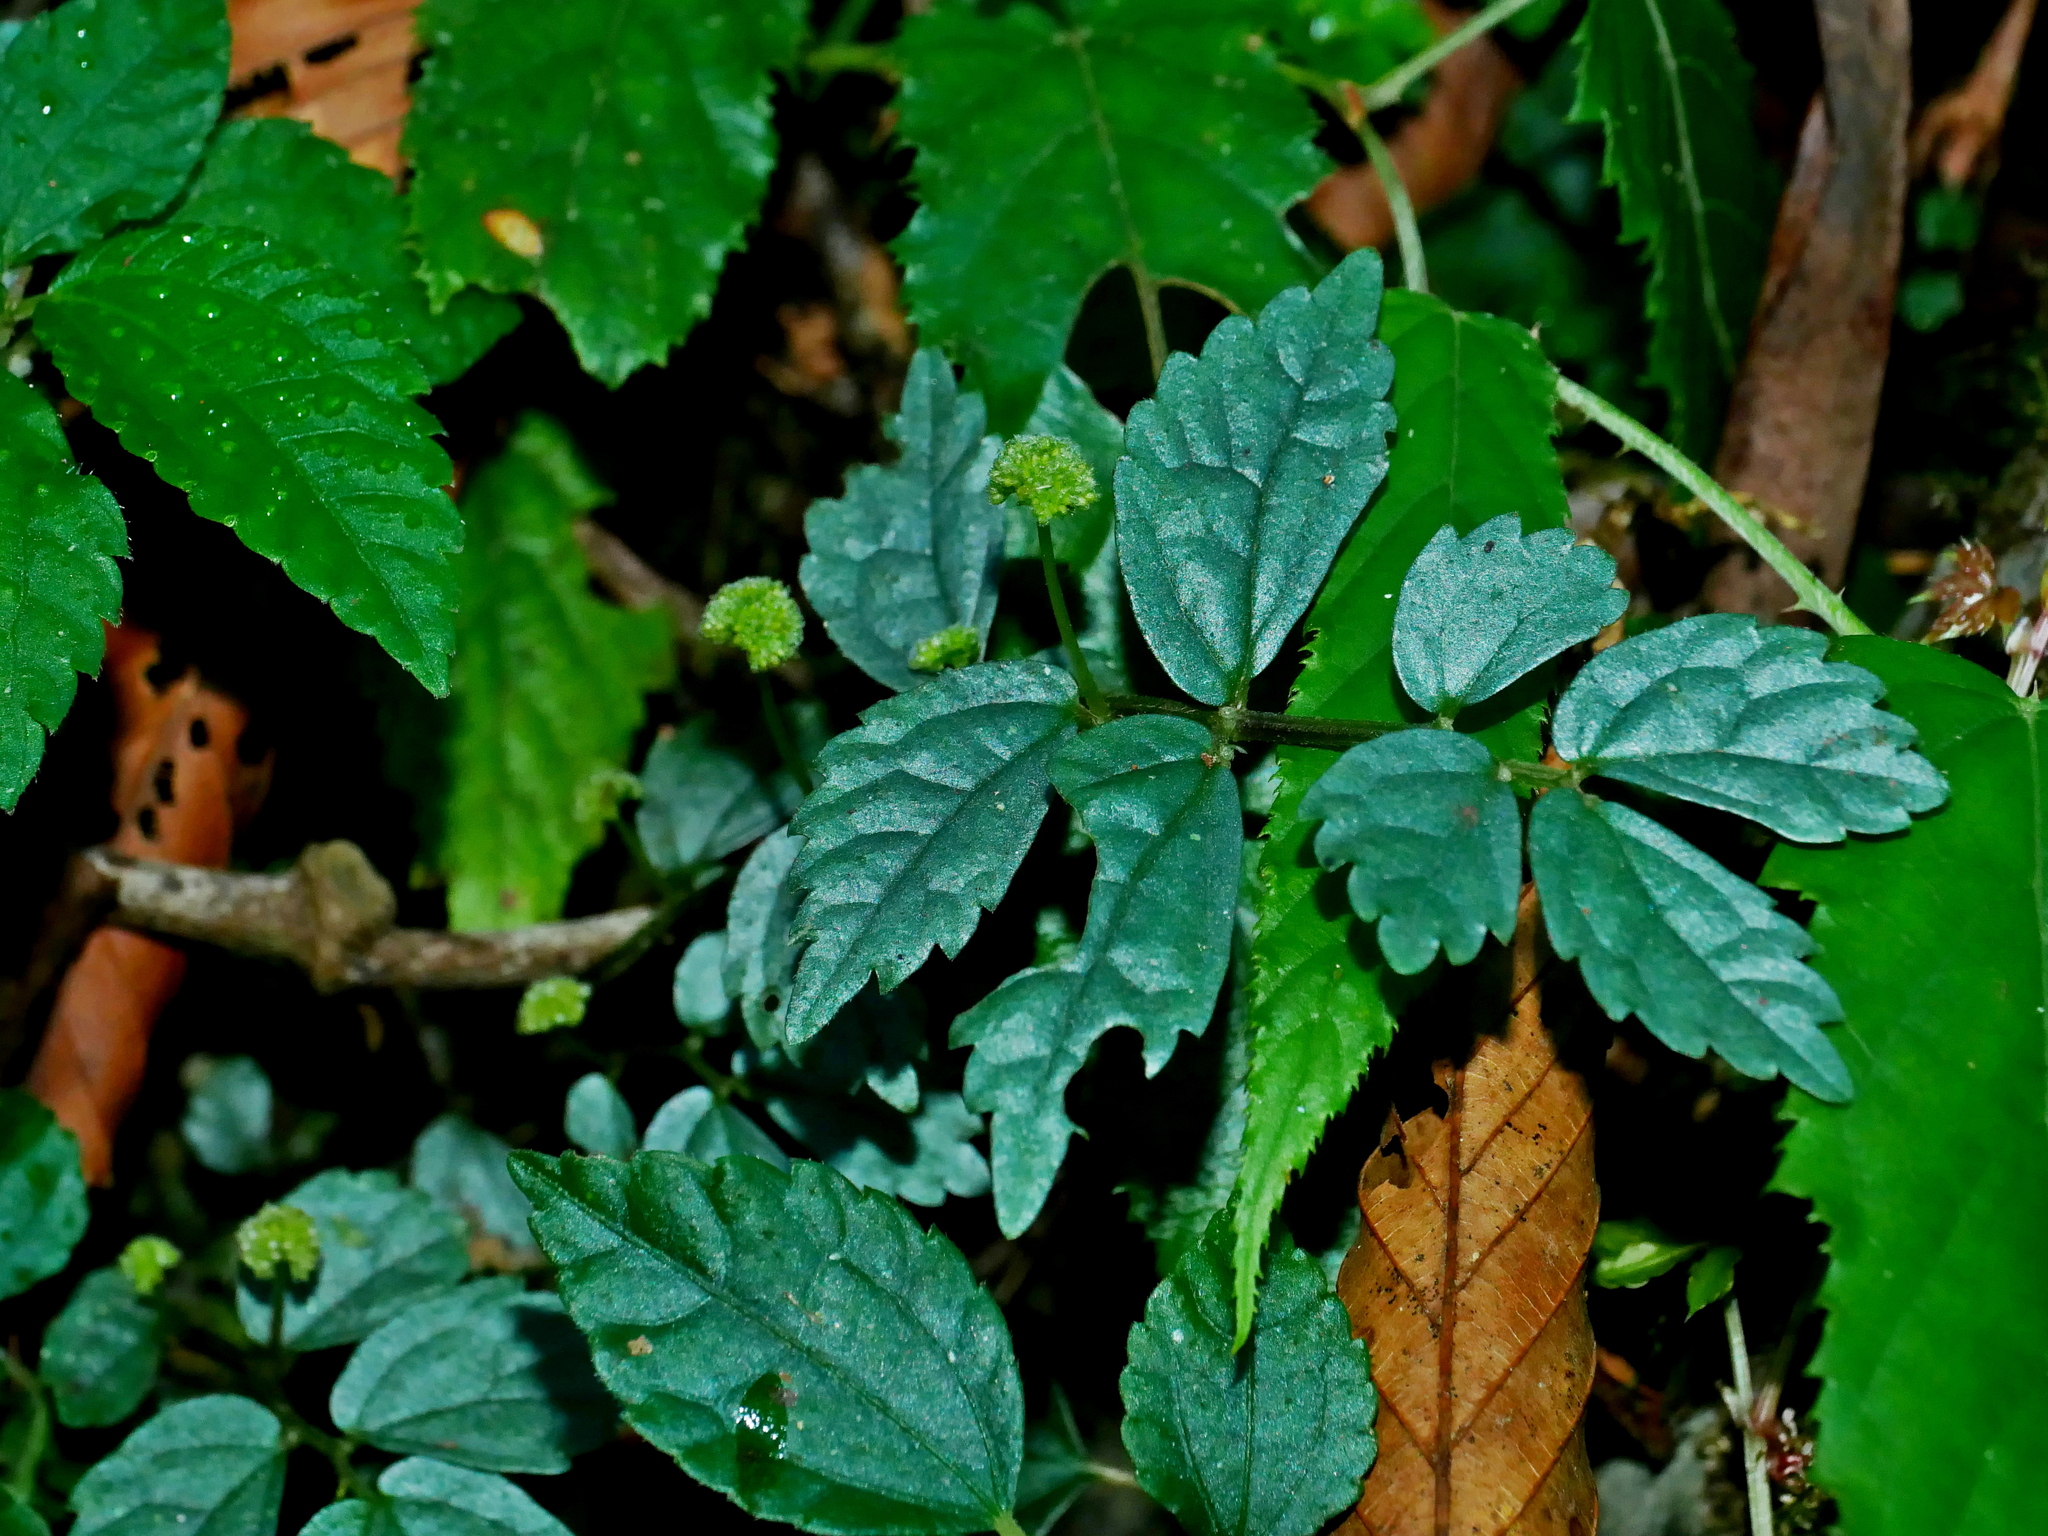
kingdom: Plantae
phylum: Tracheophyta
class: Magnoliopsida
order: Rosales
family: Urticaceae
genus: Elatostema
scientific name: Elatostema microcephalanthum
